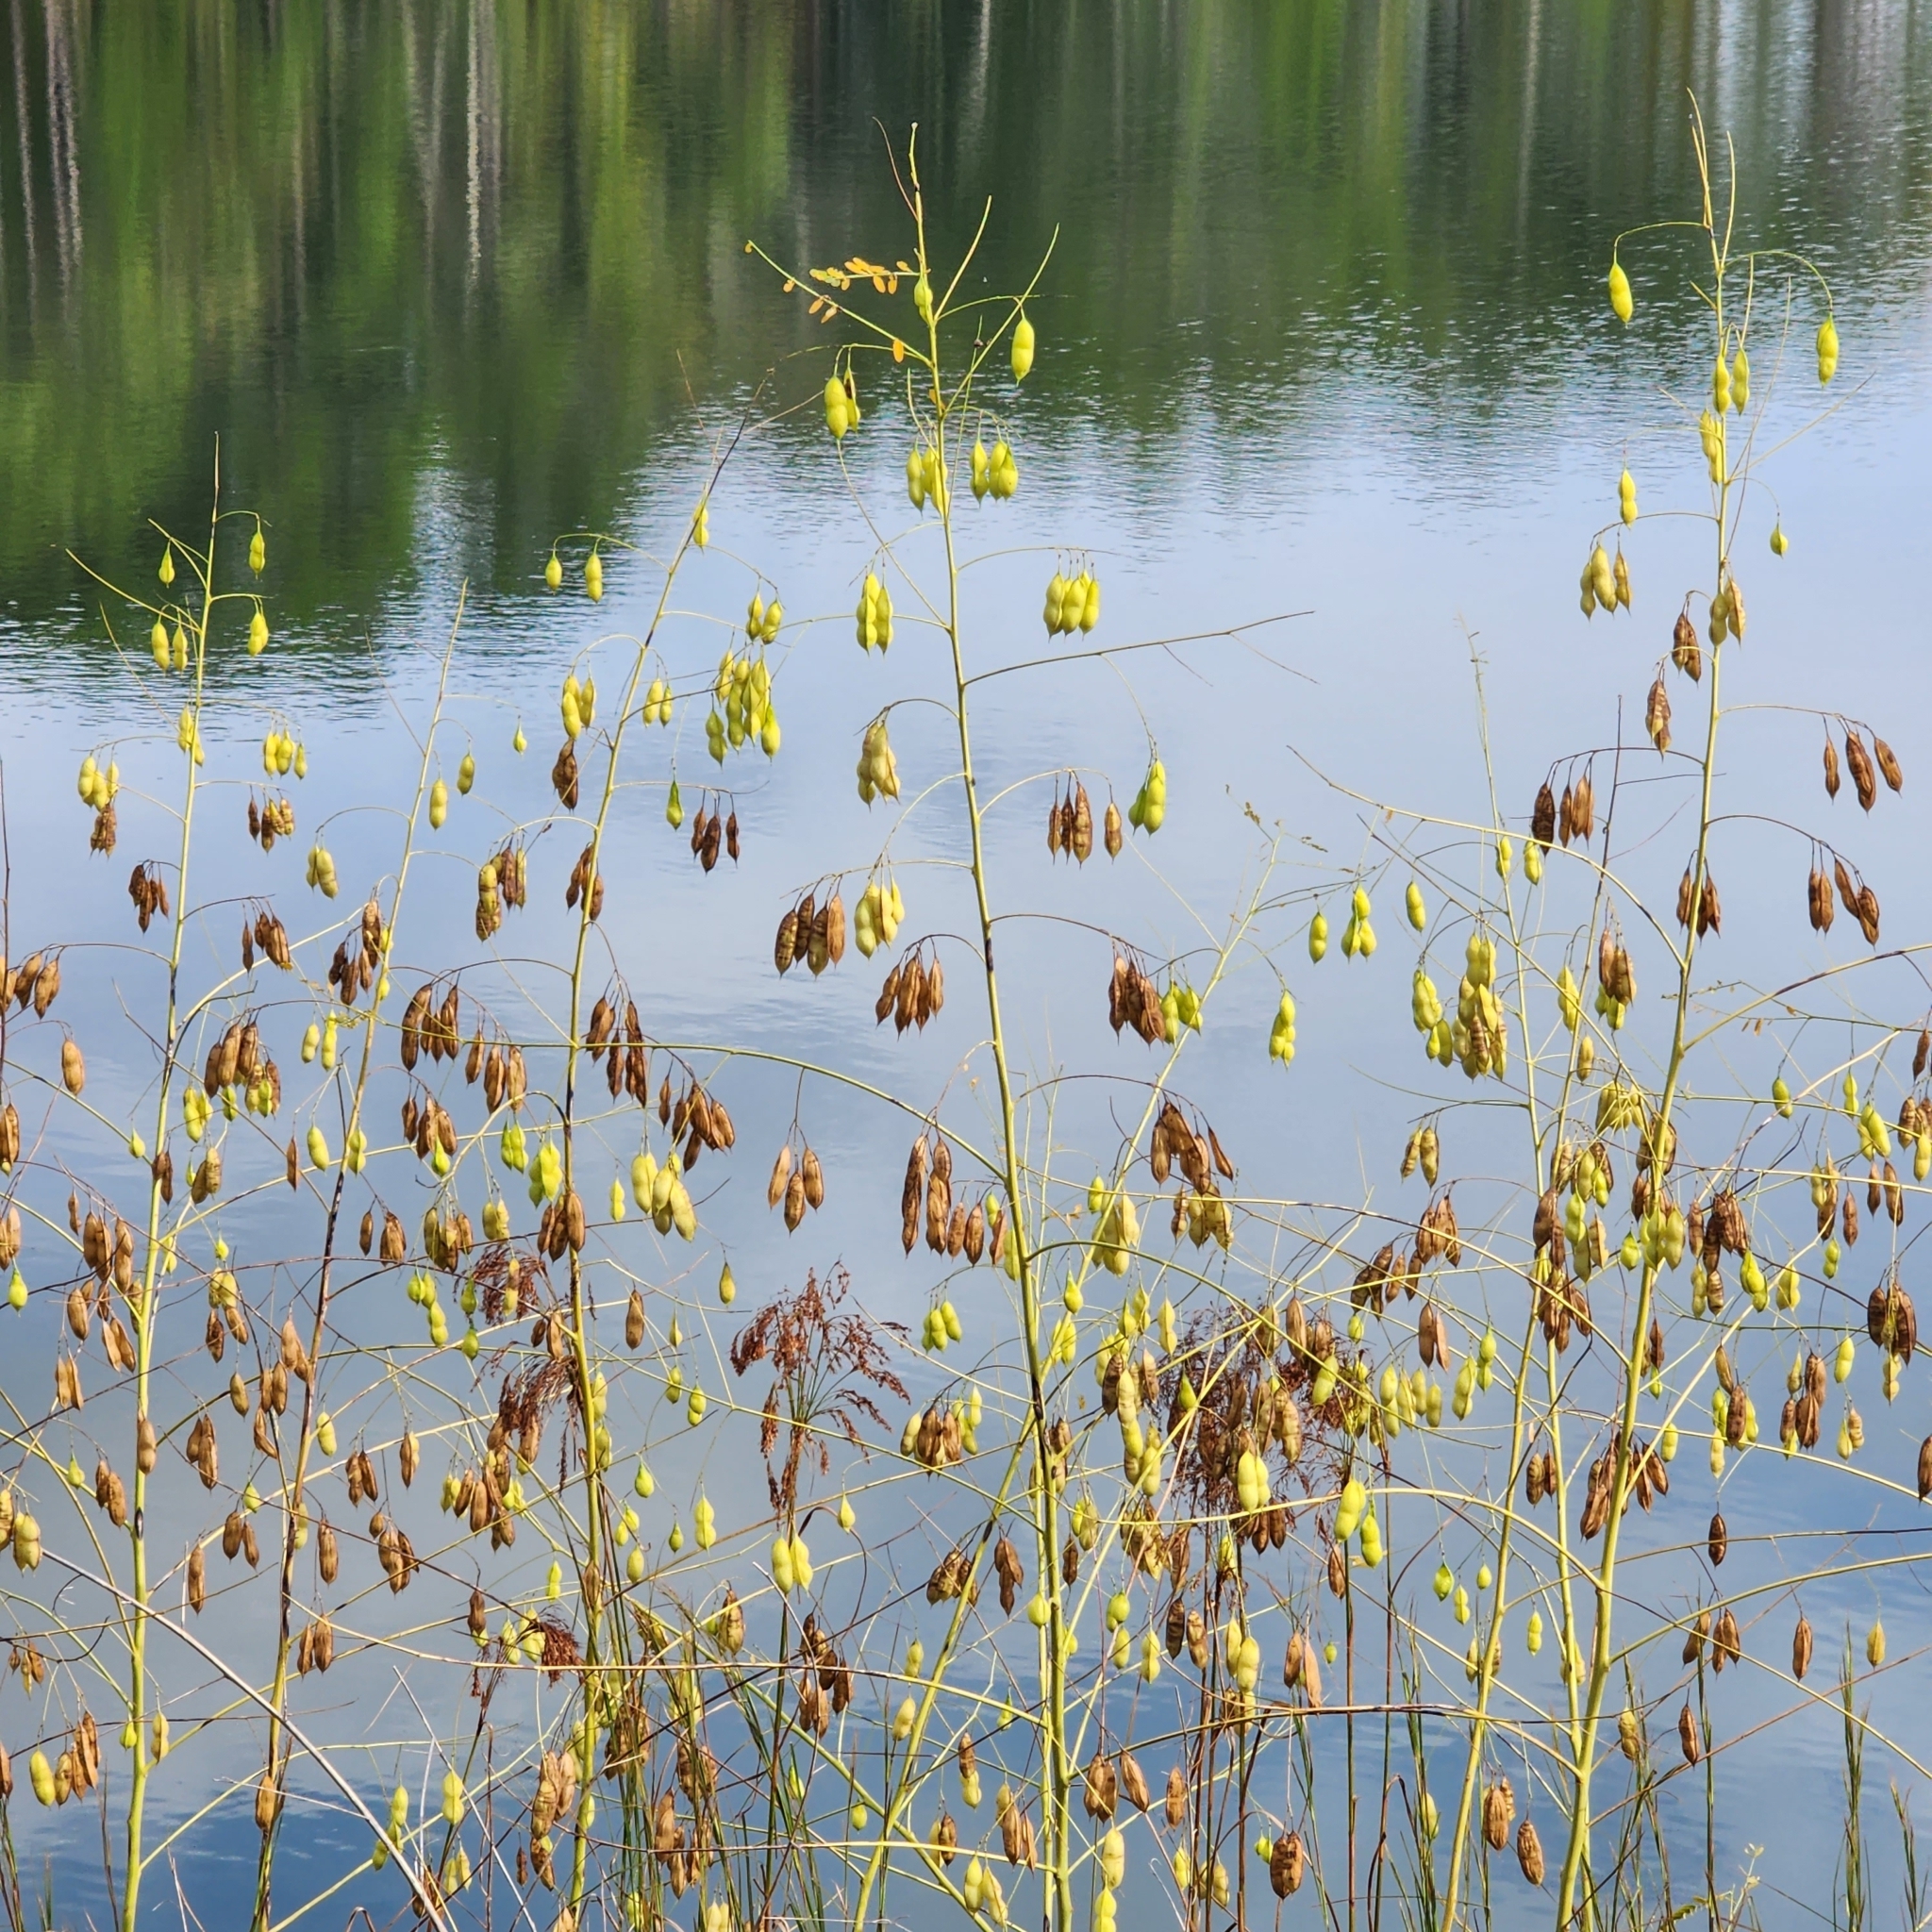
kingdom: Plantae
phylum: Tracheophyta
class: Magnoliopsida
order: Fabales
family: Fabaceae
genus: Sesbania
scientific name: Sesbania vesicaria
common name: Bagpod
